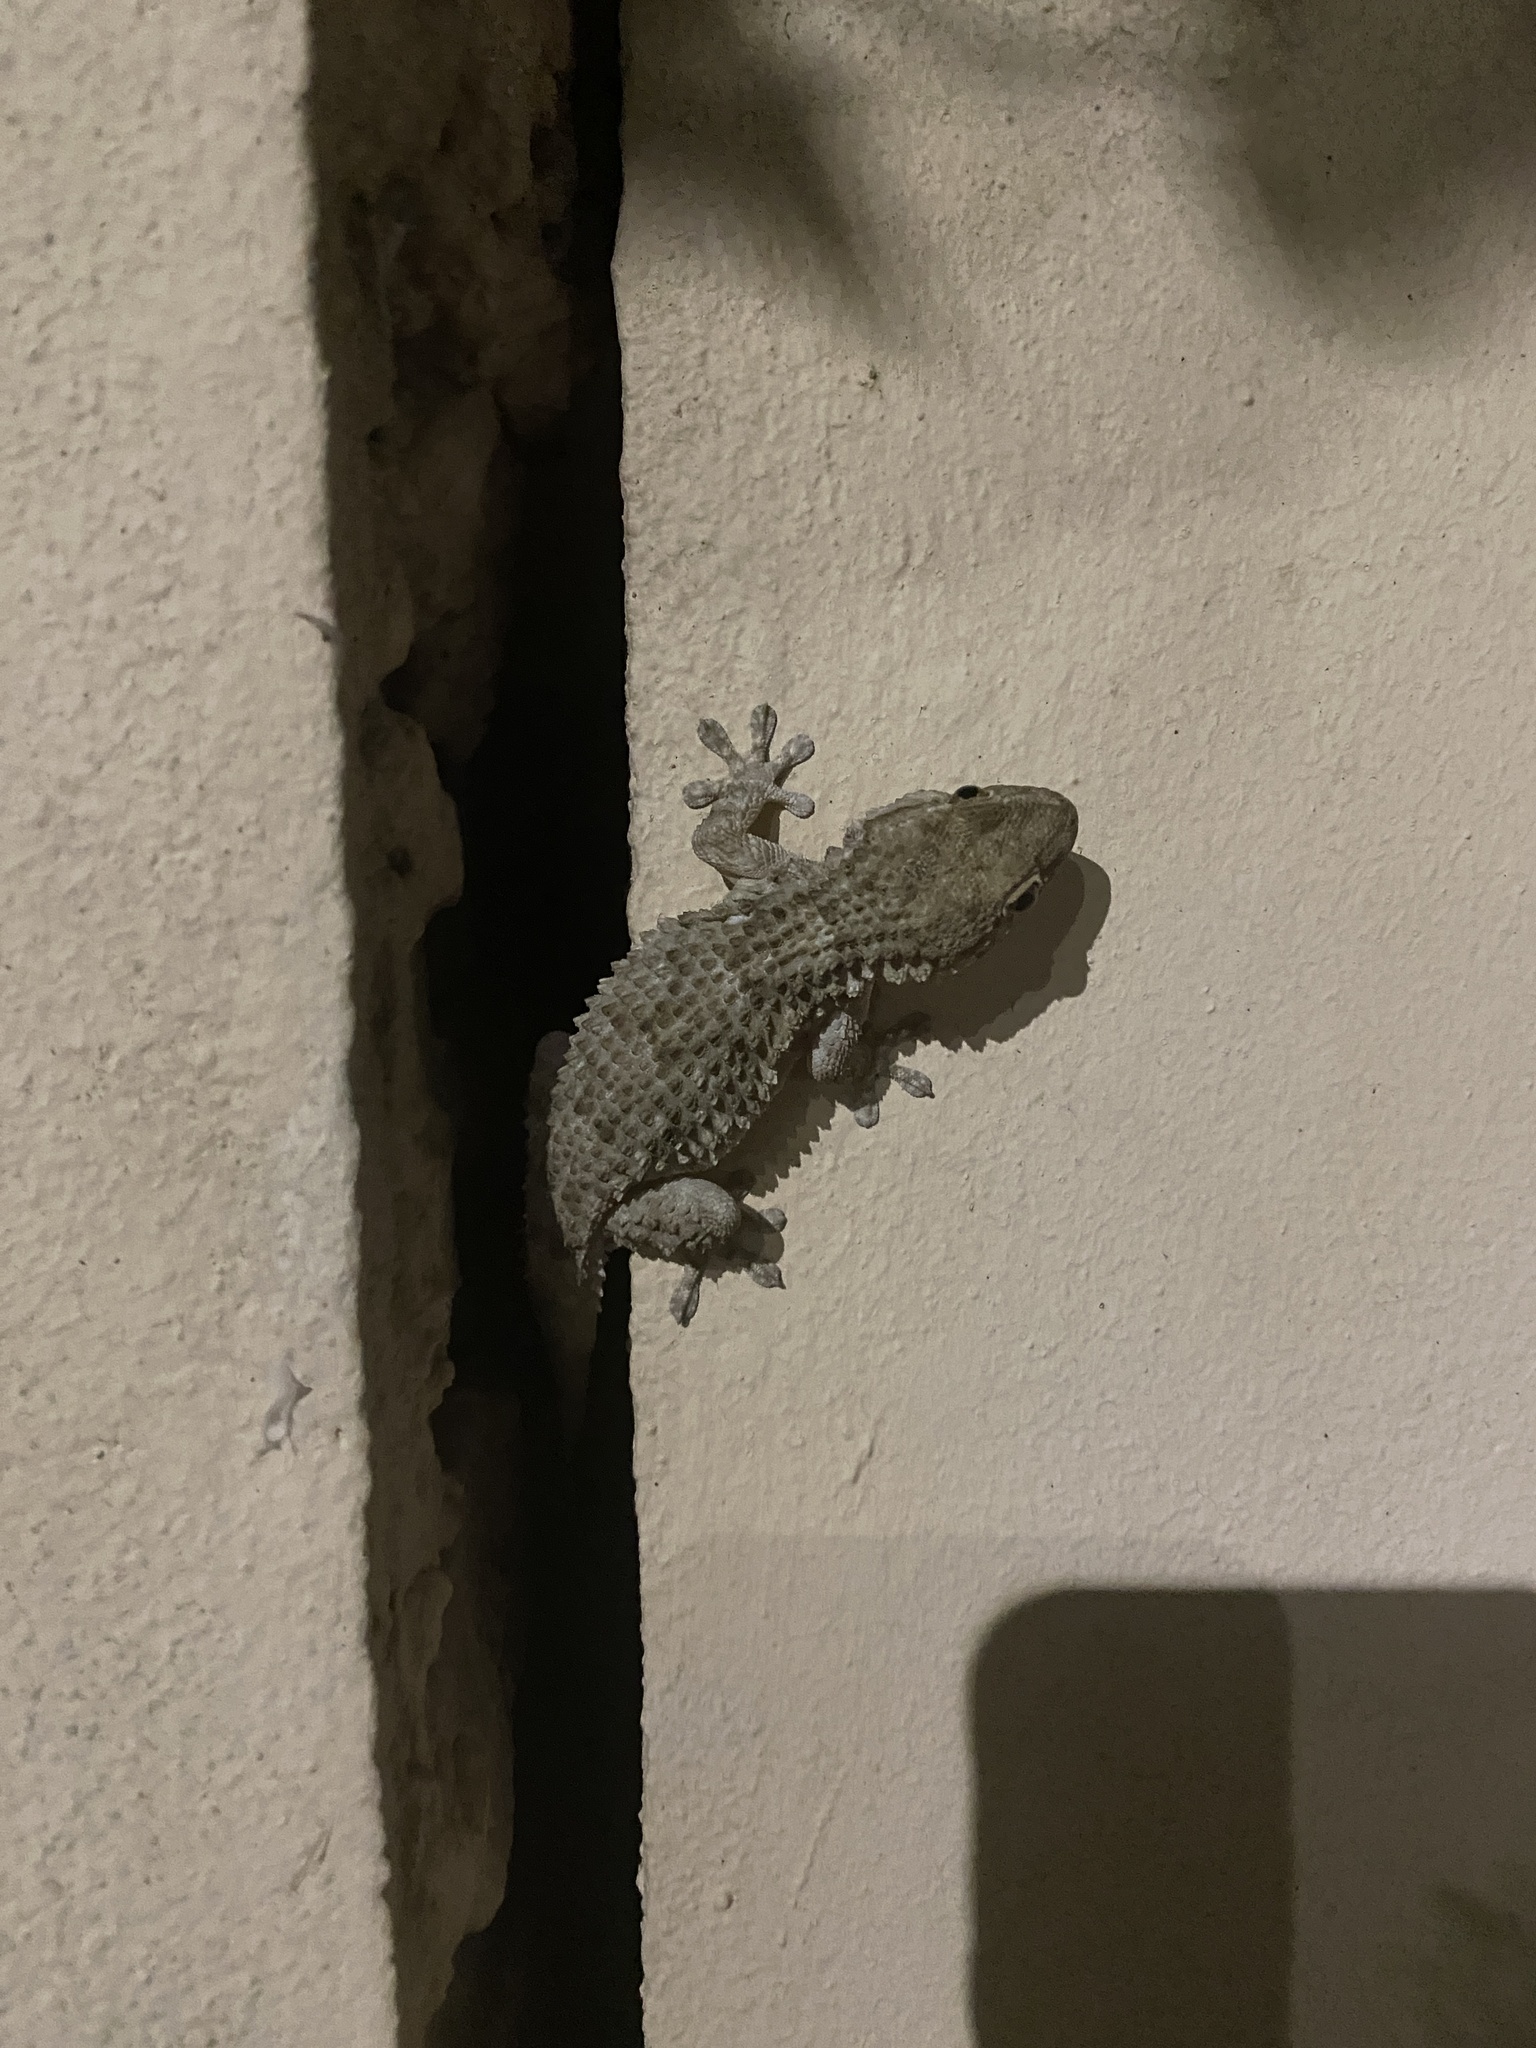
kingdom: Animalia
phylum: Chordata
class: Squamata
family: Phyllodactylidae
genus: Tarentola
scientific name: Tarentola mauritanica
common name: Moorish gecko
